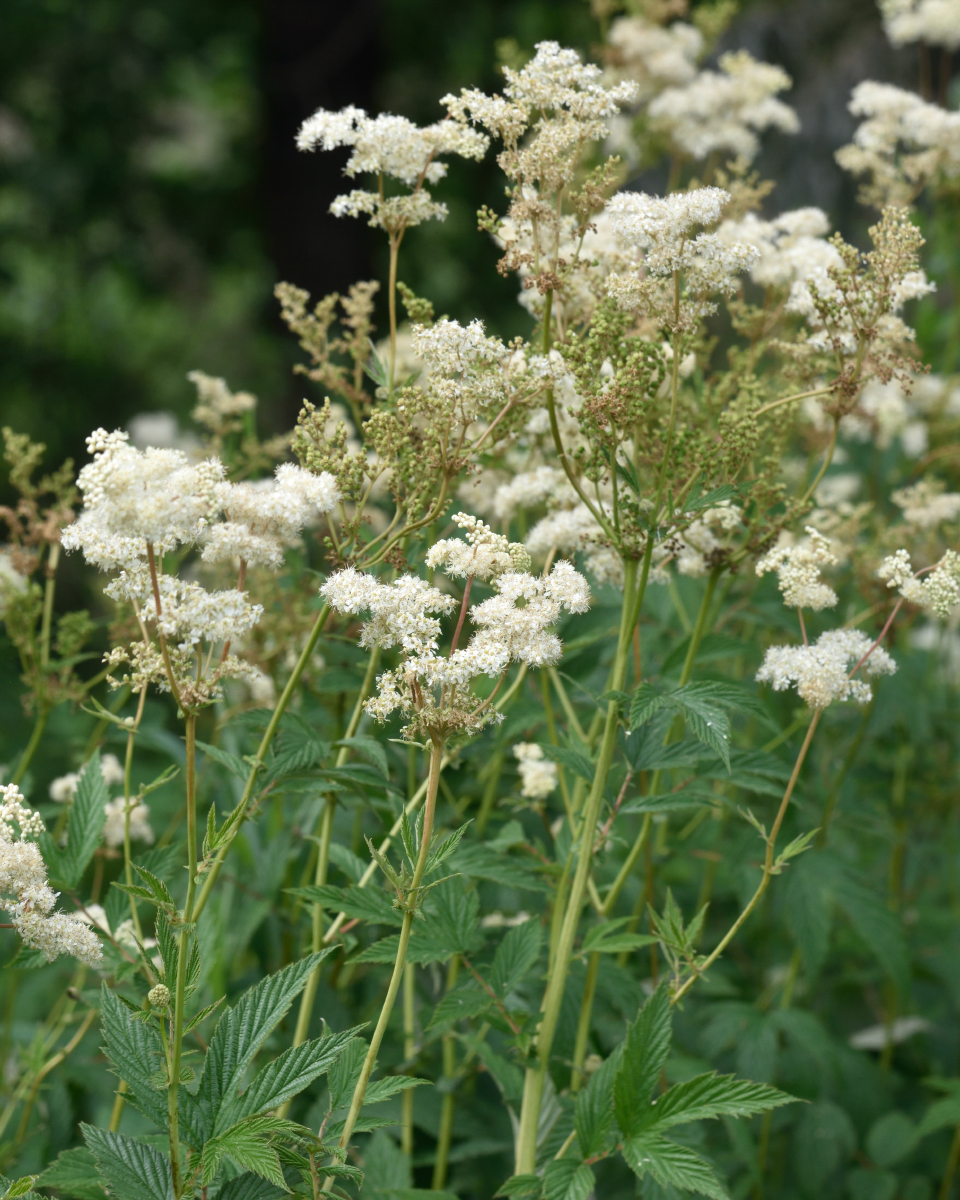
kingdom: Plantae
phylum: Tracheophyta
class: Magnoliopsida
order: Rosales
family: Rosaceae
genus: Filipendula
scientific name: Filipendula ulmaria
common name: Meadowsweet
